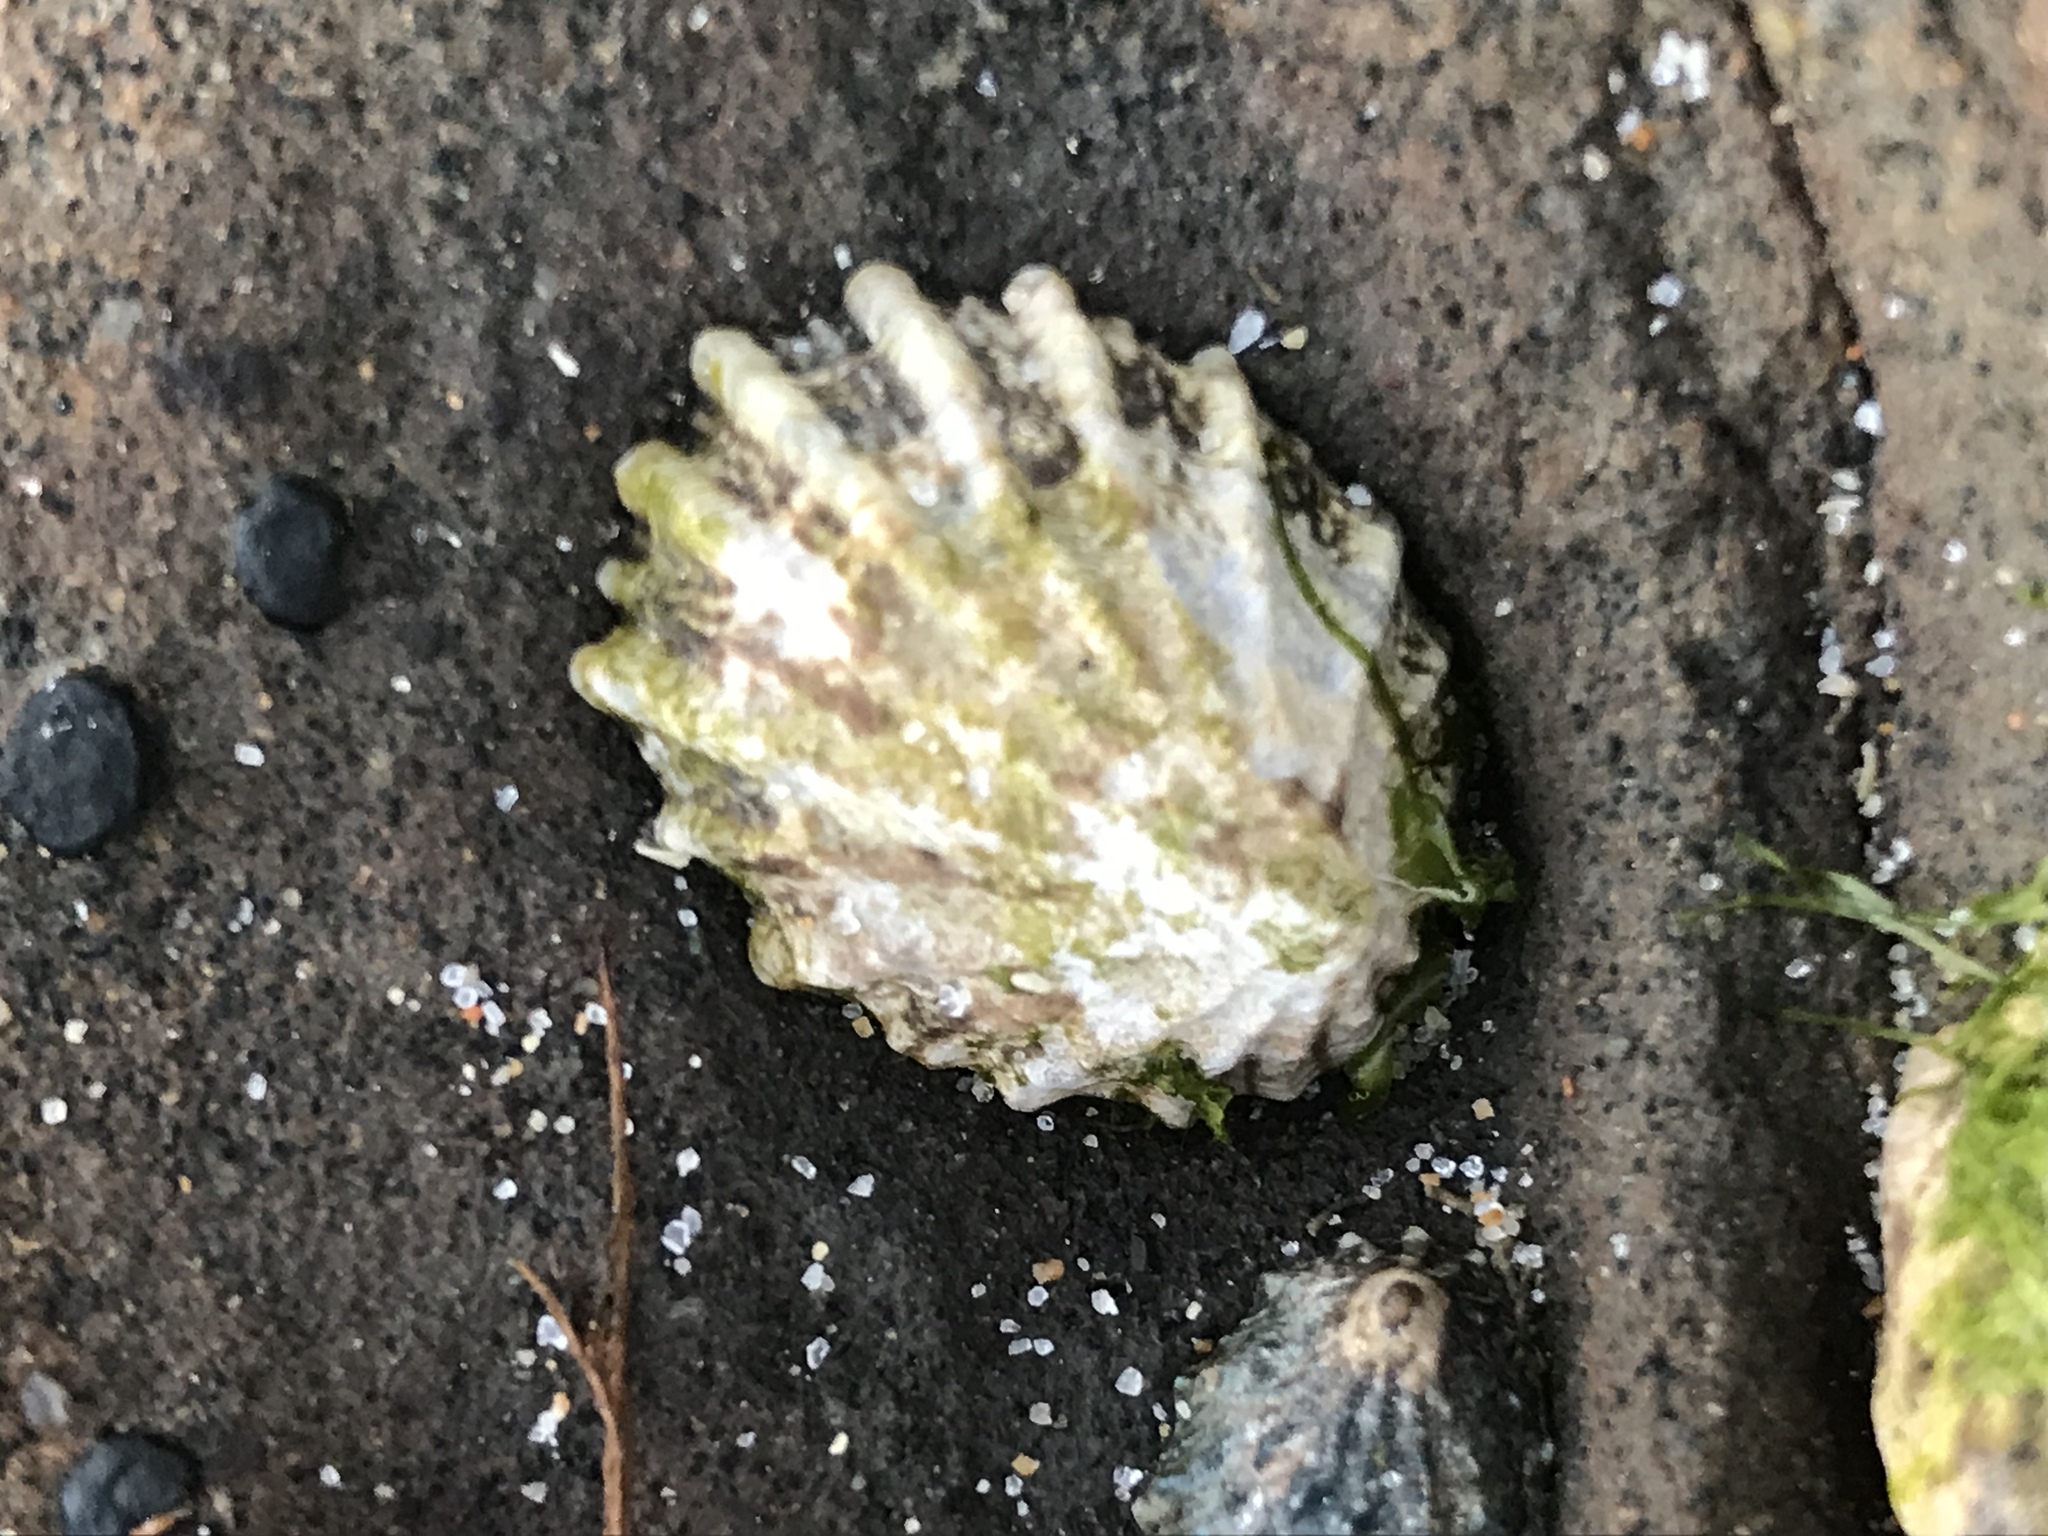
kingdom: Animalia
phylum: Mollusca
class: Gastropoda
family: Lottiidae
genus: Lottia
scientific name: Lottia scabra
